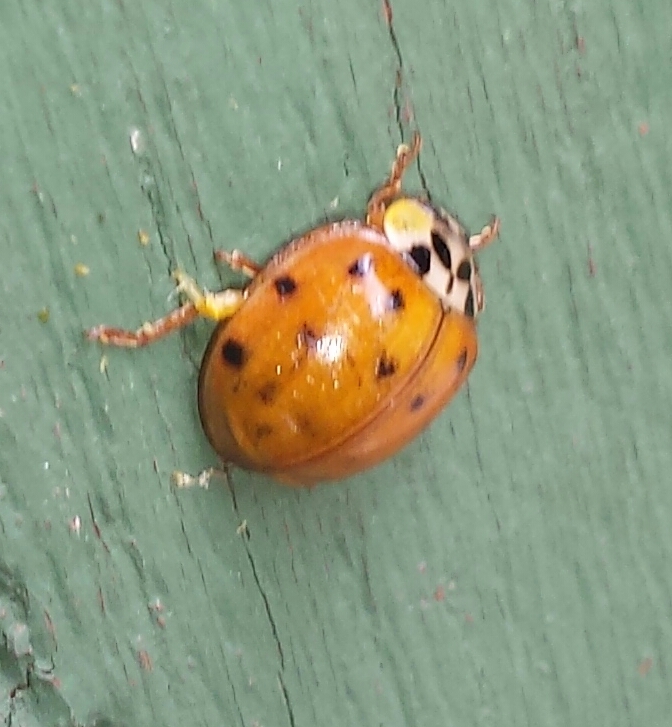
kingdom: Animalia
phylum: Arthropoda
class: Insecta
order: Coleoptera
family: Coccinellidae
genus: Harmonia
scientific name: Harmonia axyridis
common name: Harlequin ladybird
